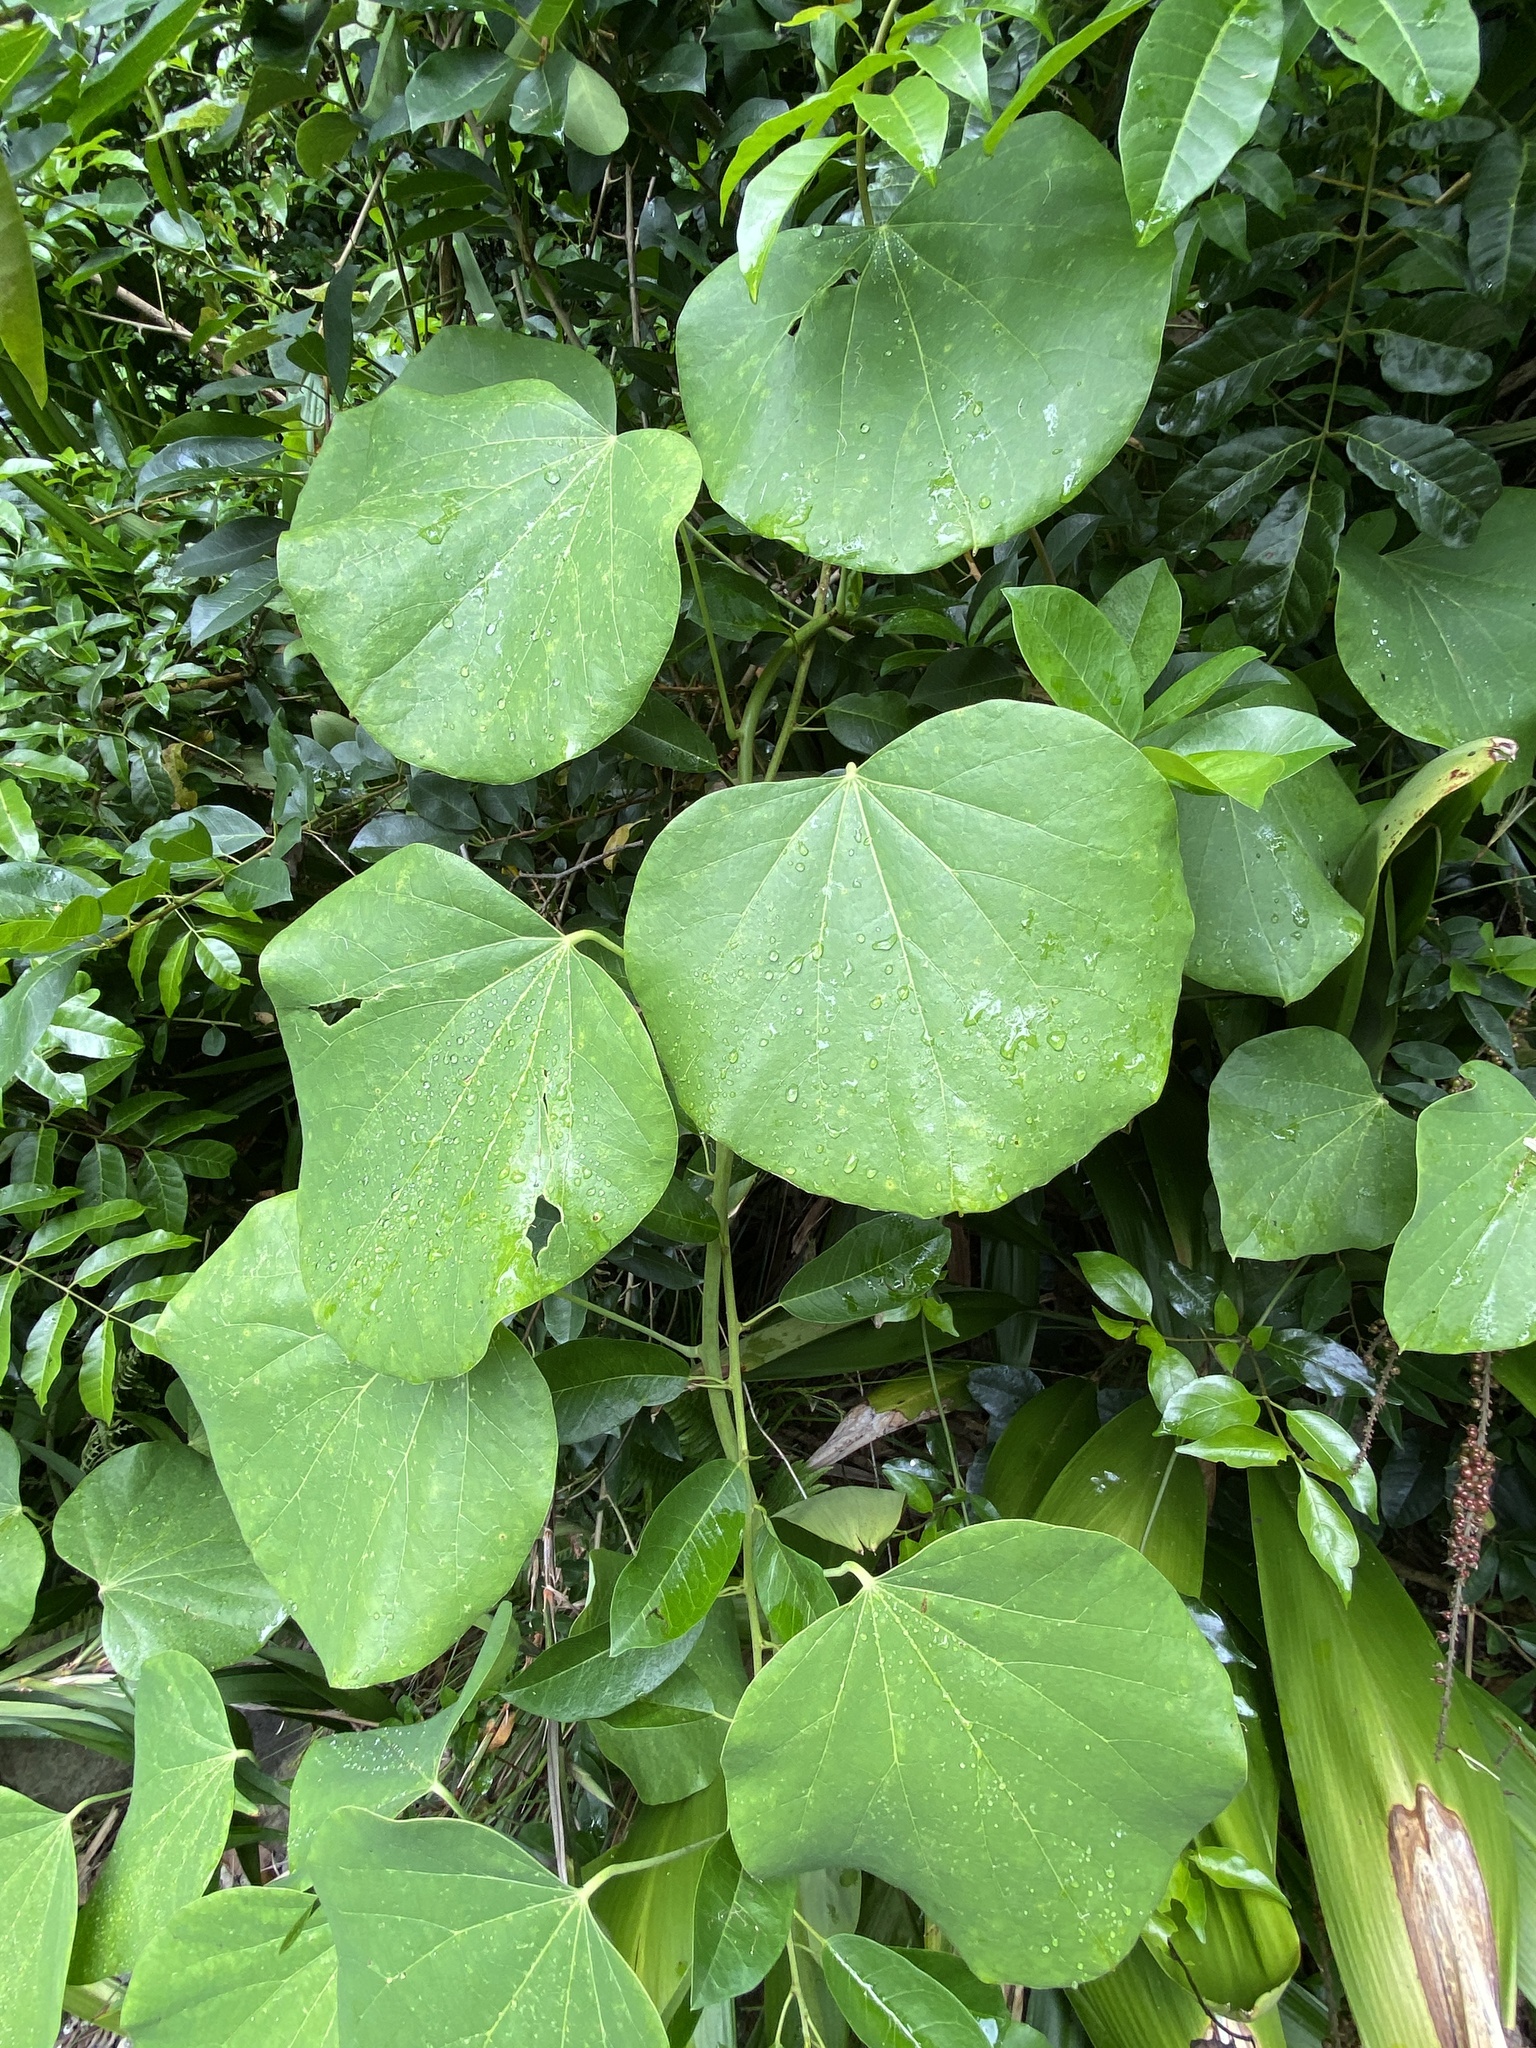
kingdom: Plantae
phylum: Tracheophyta
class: Magnoliopsida
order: Ranunculales
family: Menispermaceae
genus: Legnephora
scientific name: Legnephora moorei
